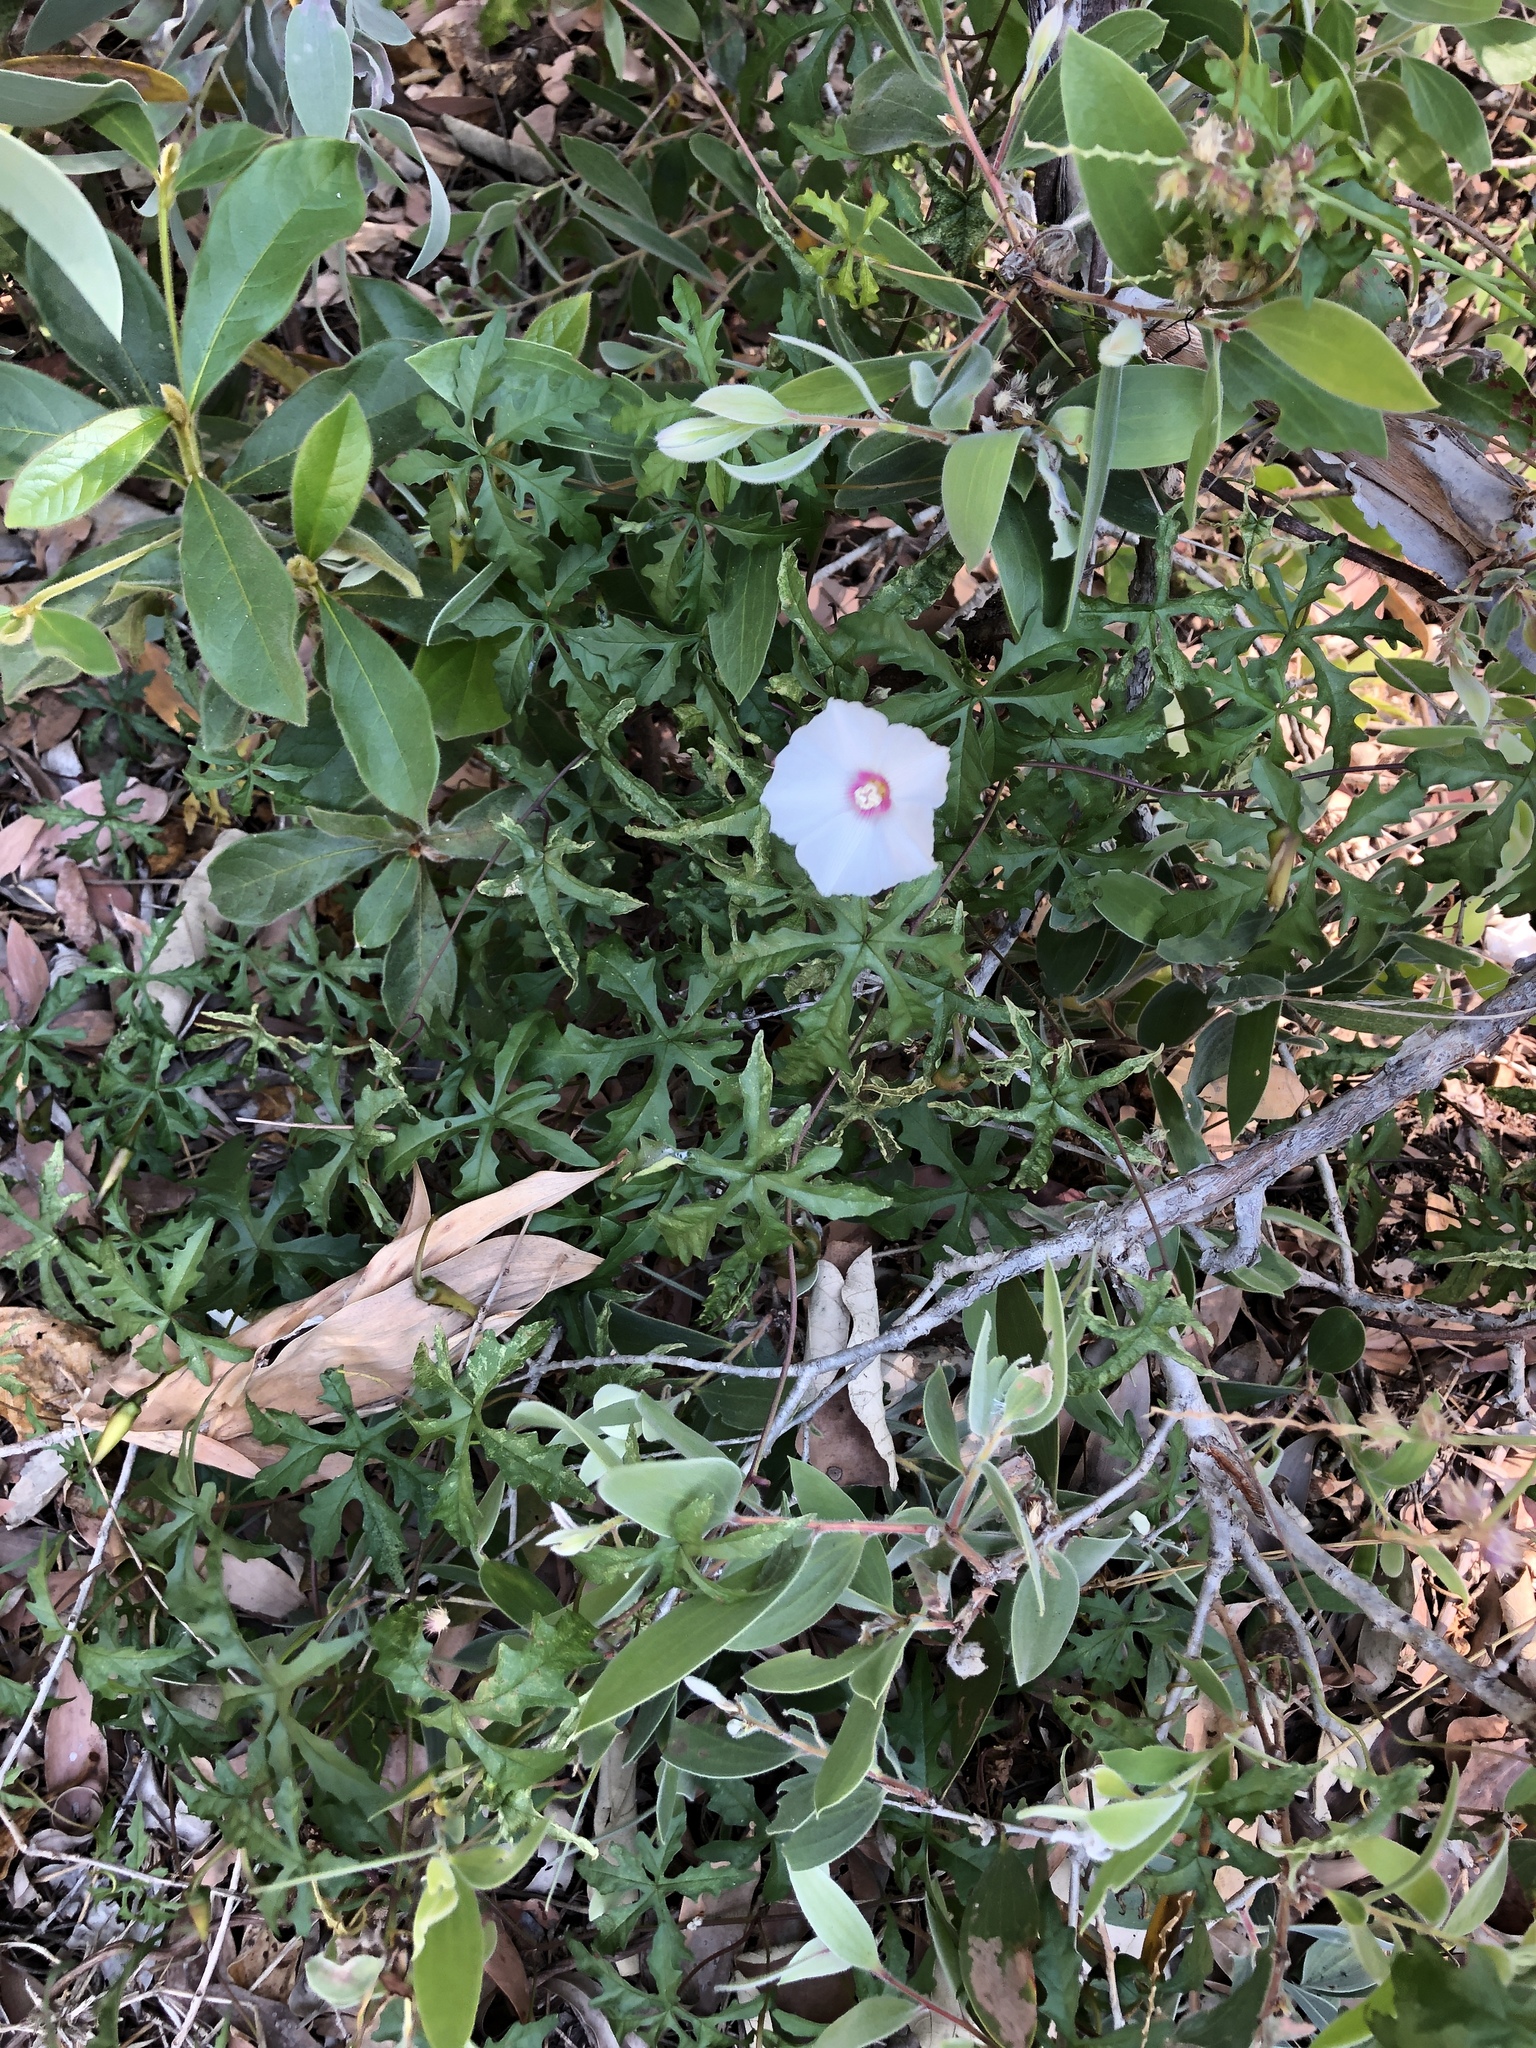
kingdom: Plantae
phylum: Tracheophyta
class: Magnoliopsida
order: Solanales
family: Convolvulaceae
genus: Distimake
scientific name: Distimake dissectus
